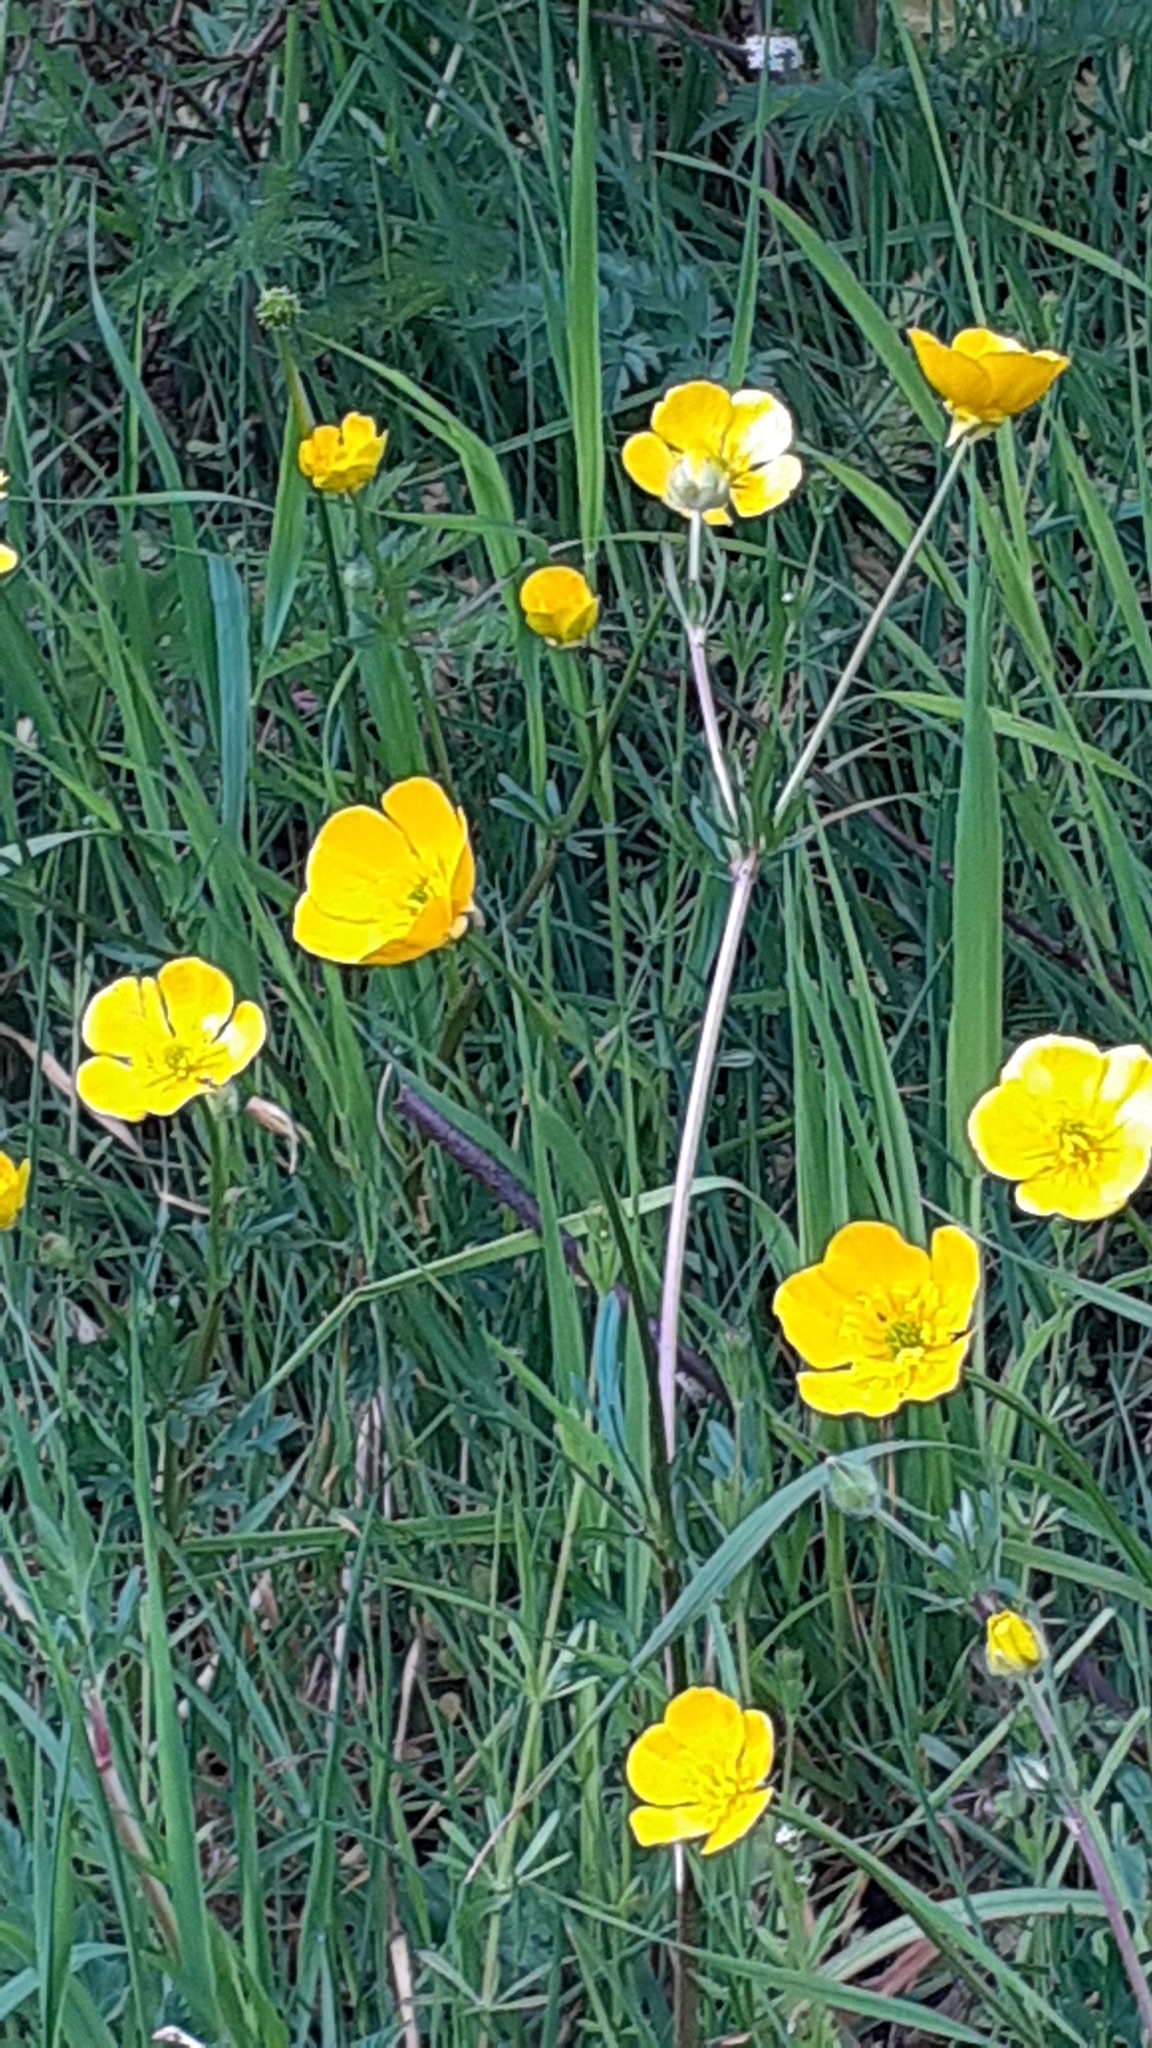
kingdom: Plantae
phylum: Tracheophyta
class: Magnoliopsida
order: Ranunculales
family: Ranunculaceae
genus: Ranunculus
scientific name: Ranunculus bulbosus
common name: Bulbous buttercup
